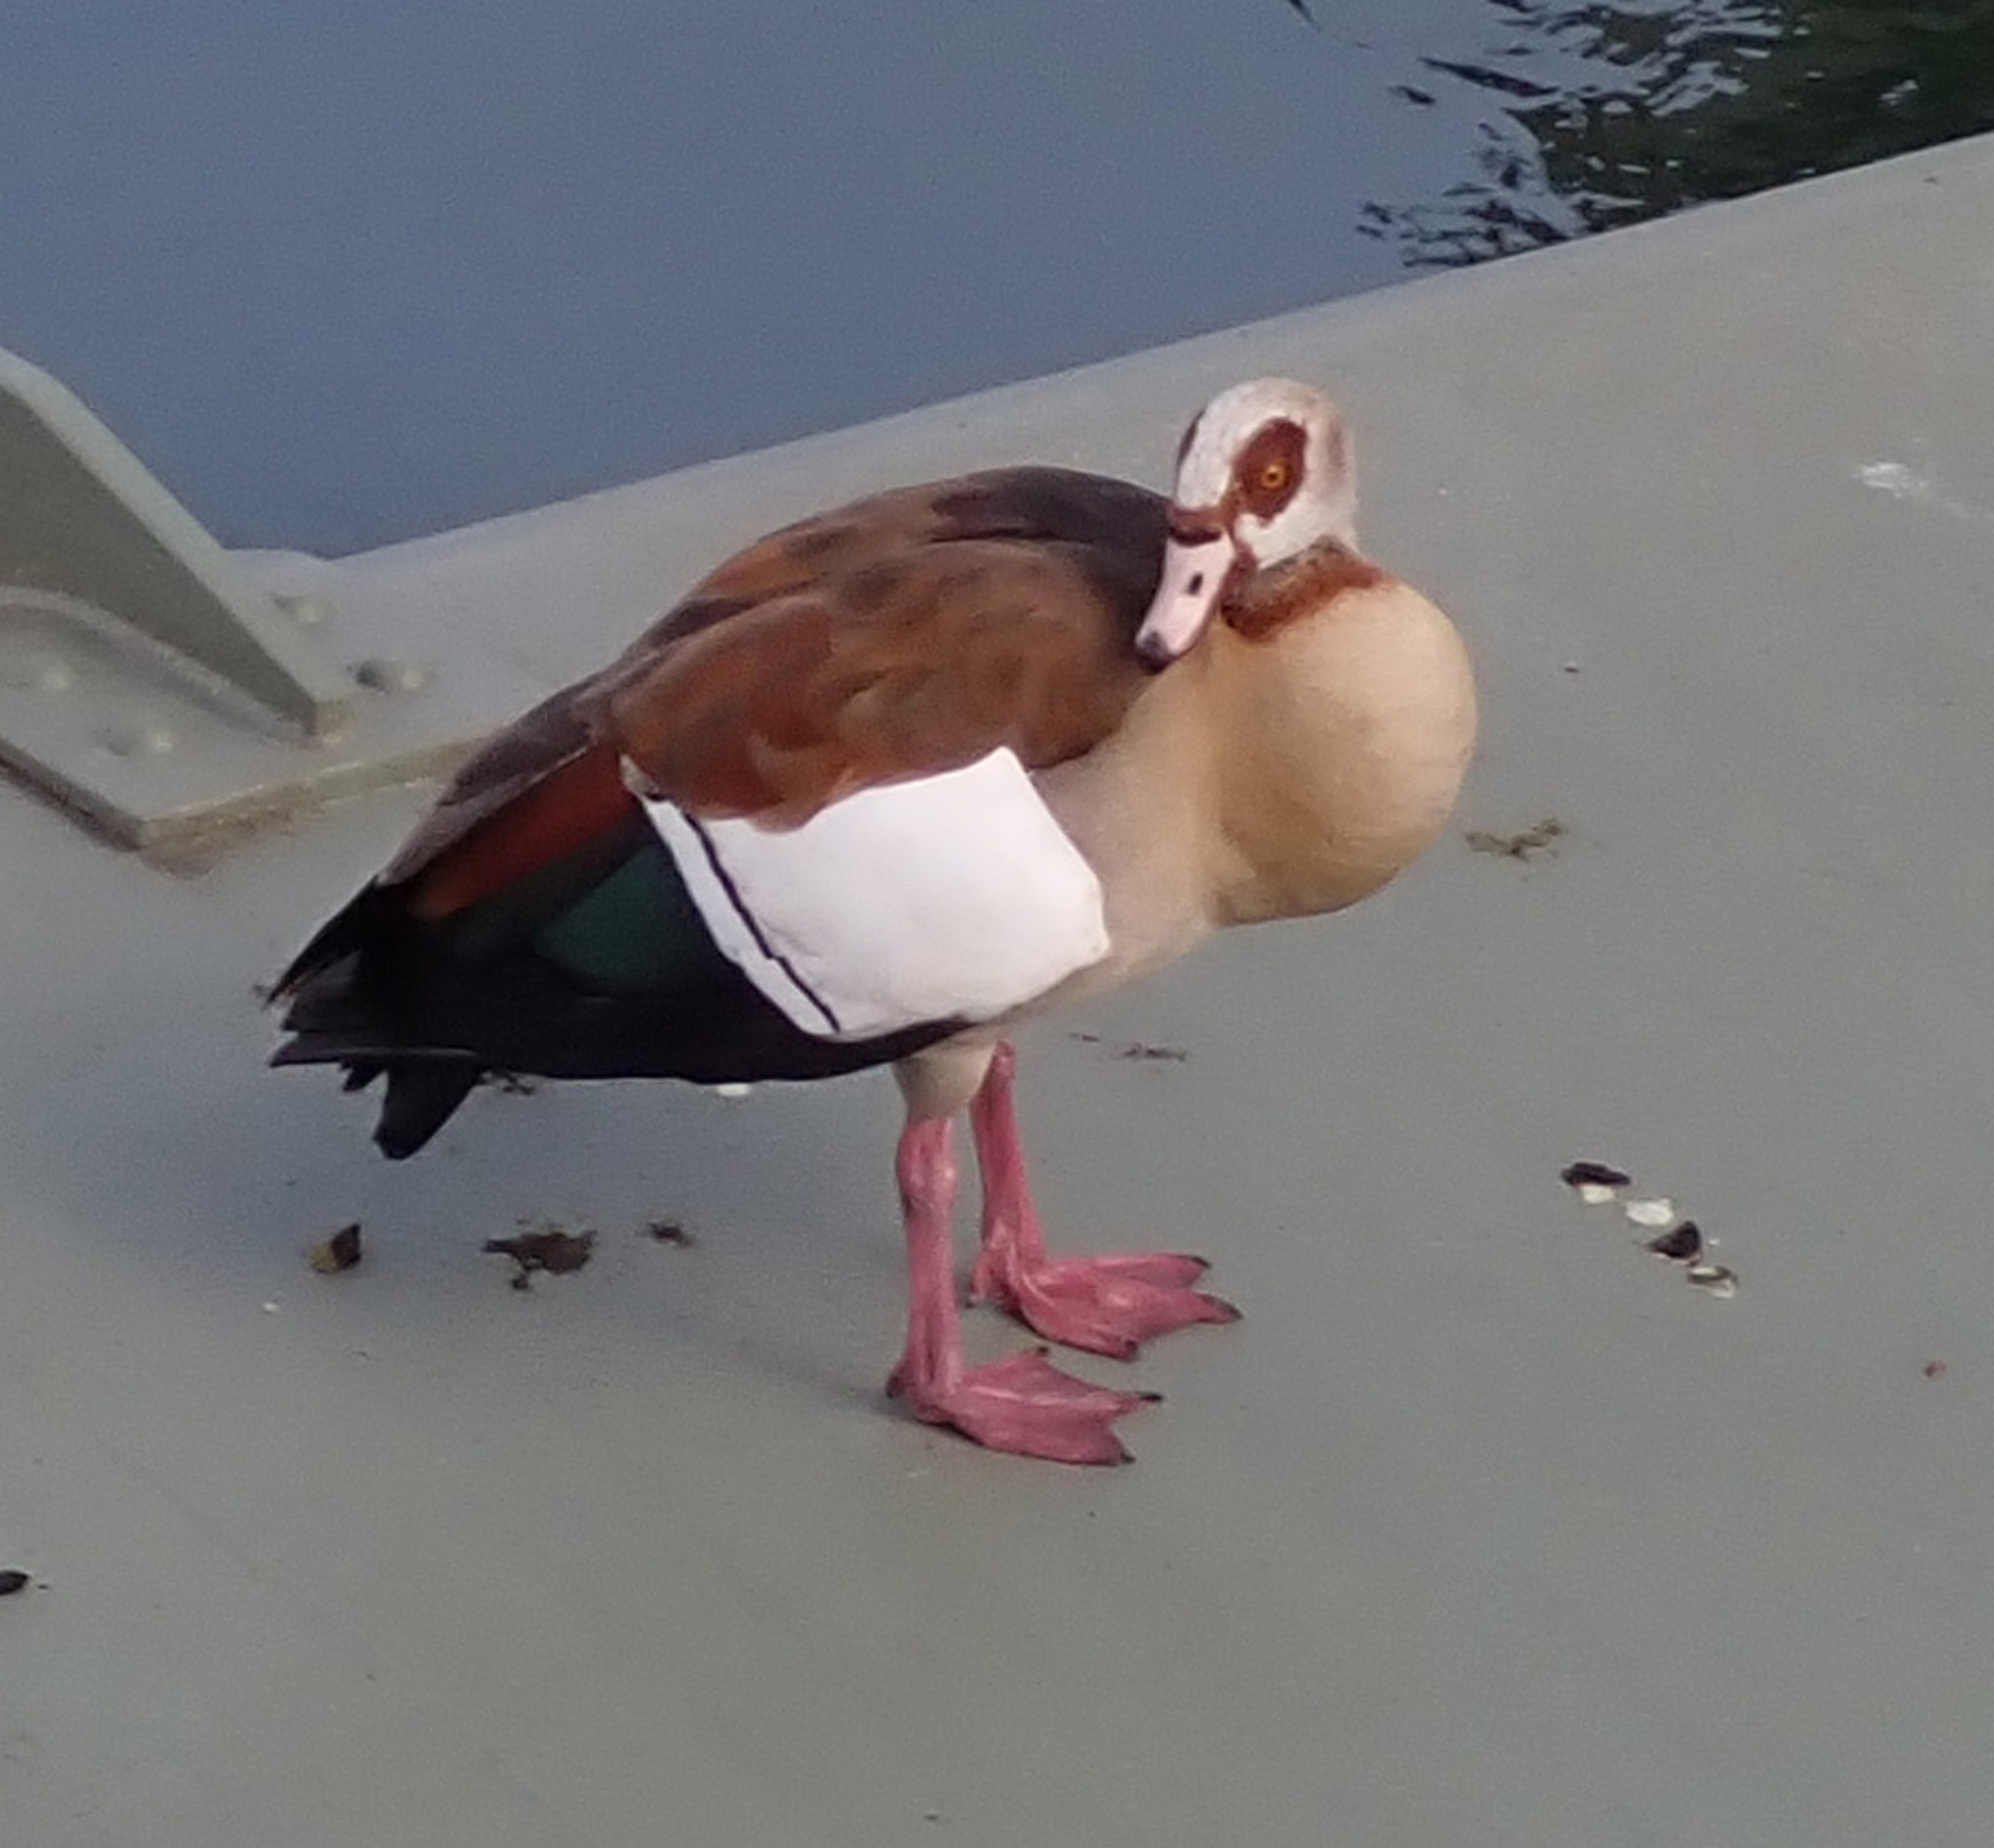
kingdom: Animalia
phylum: Chordata
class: Aves
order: Anseriformes
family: Anatidae
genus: Alopochen
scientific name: Alopochen aegyptiaca
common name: Egyptian goose
